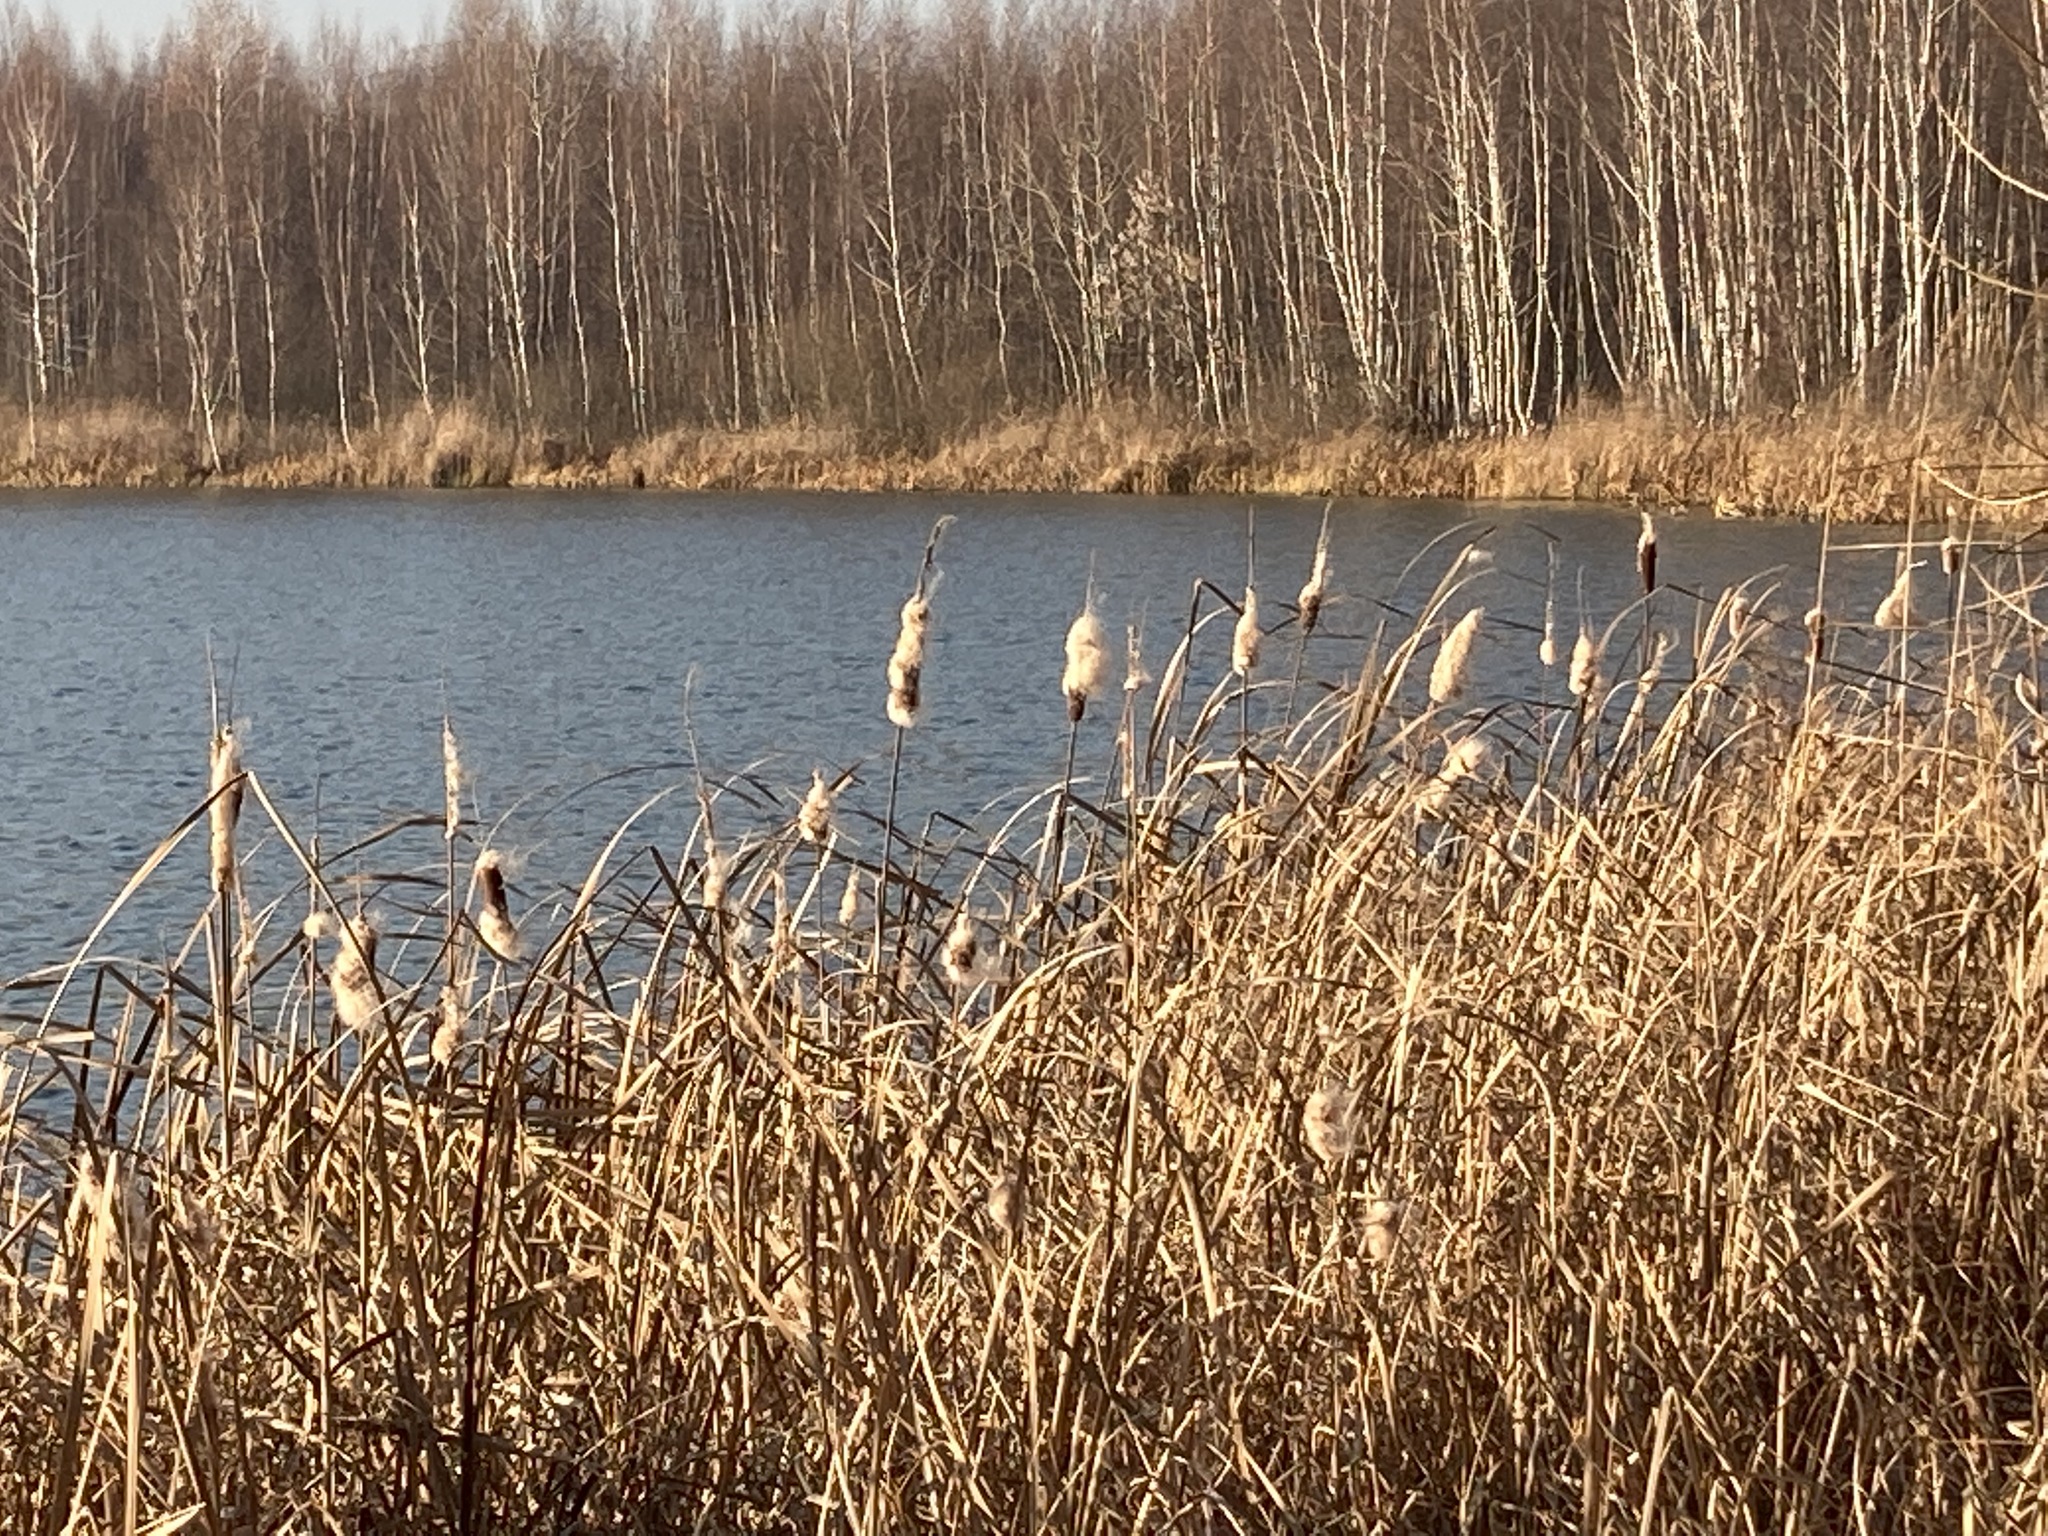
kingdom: Plantae
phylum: Tracheophyta
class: Liliopsida
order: Poales
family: Typhaceae
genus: Typha
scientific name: Typha latifolia
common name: Broadleaf cattail
